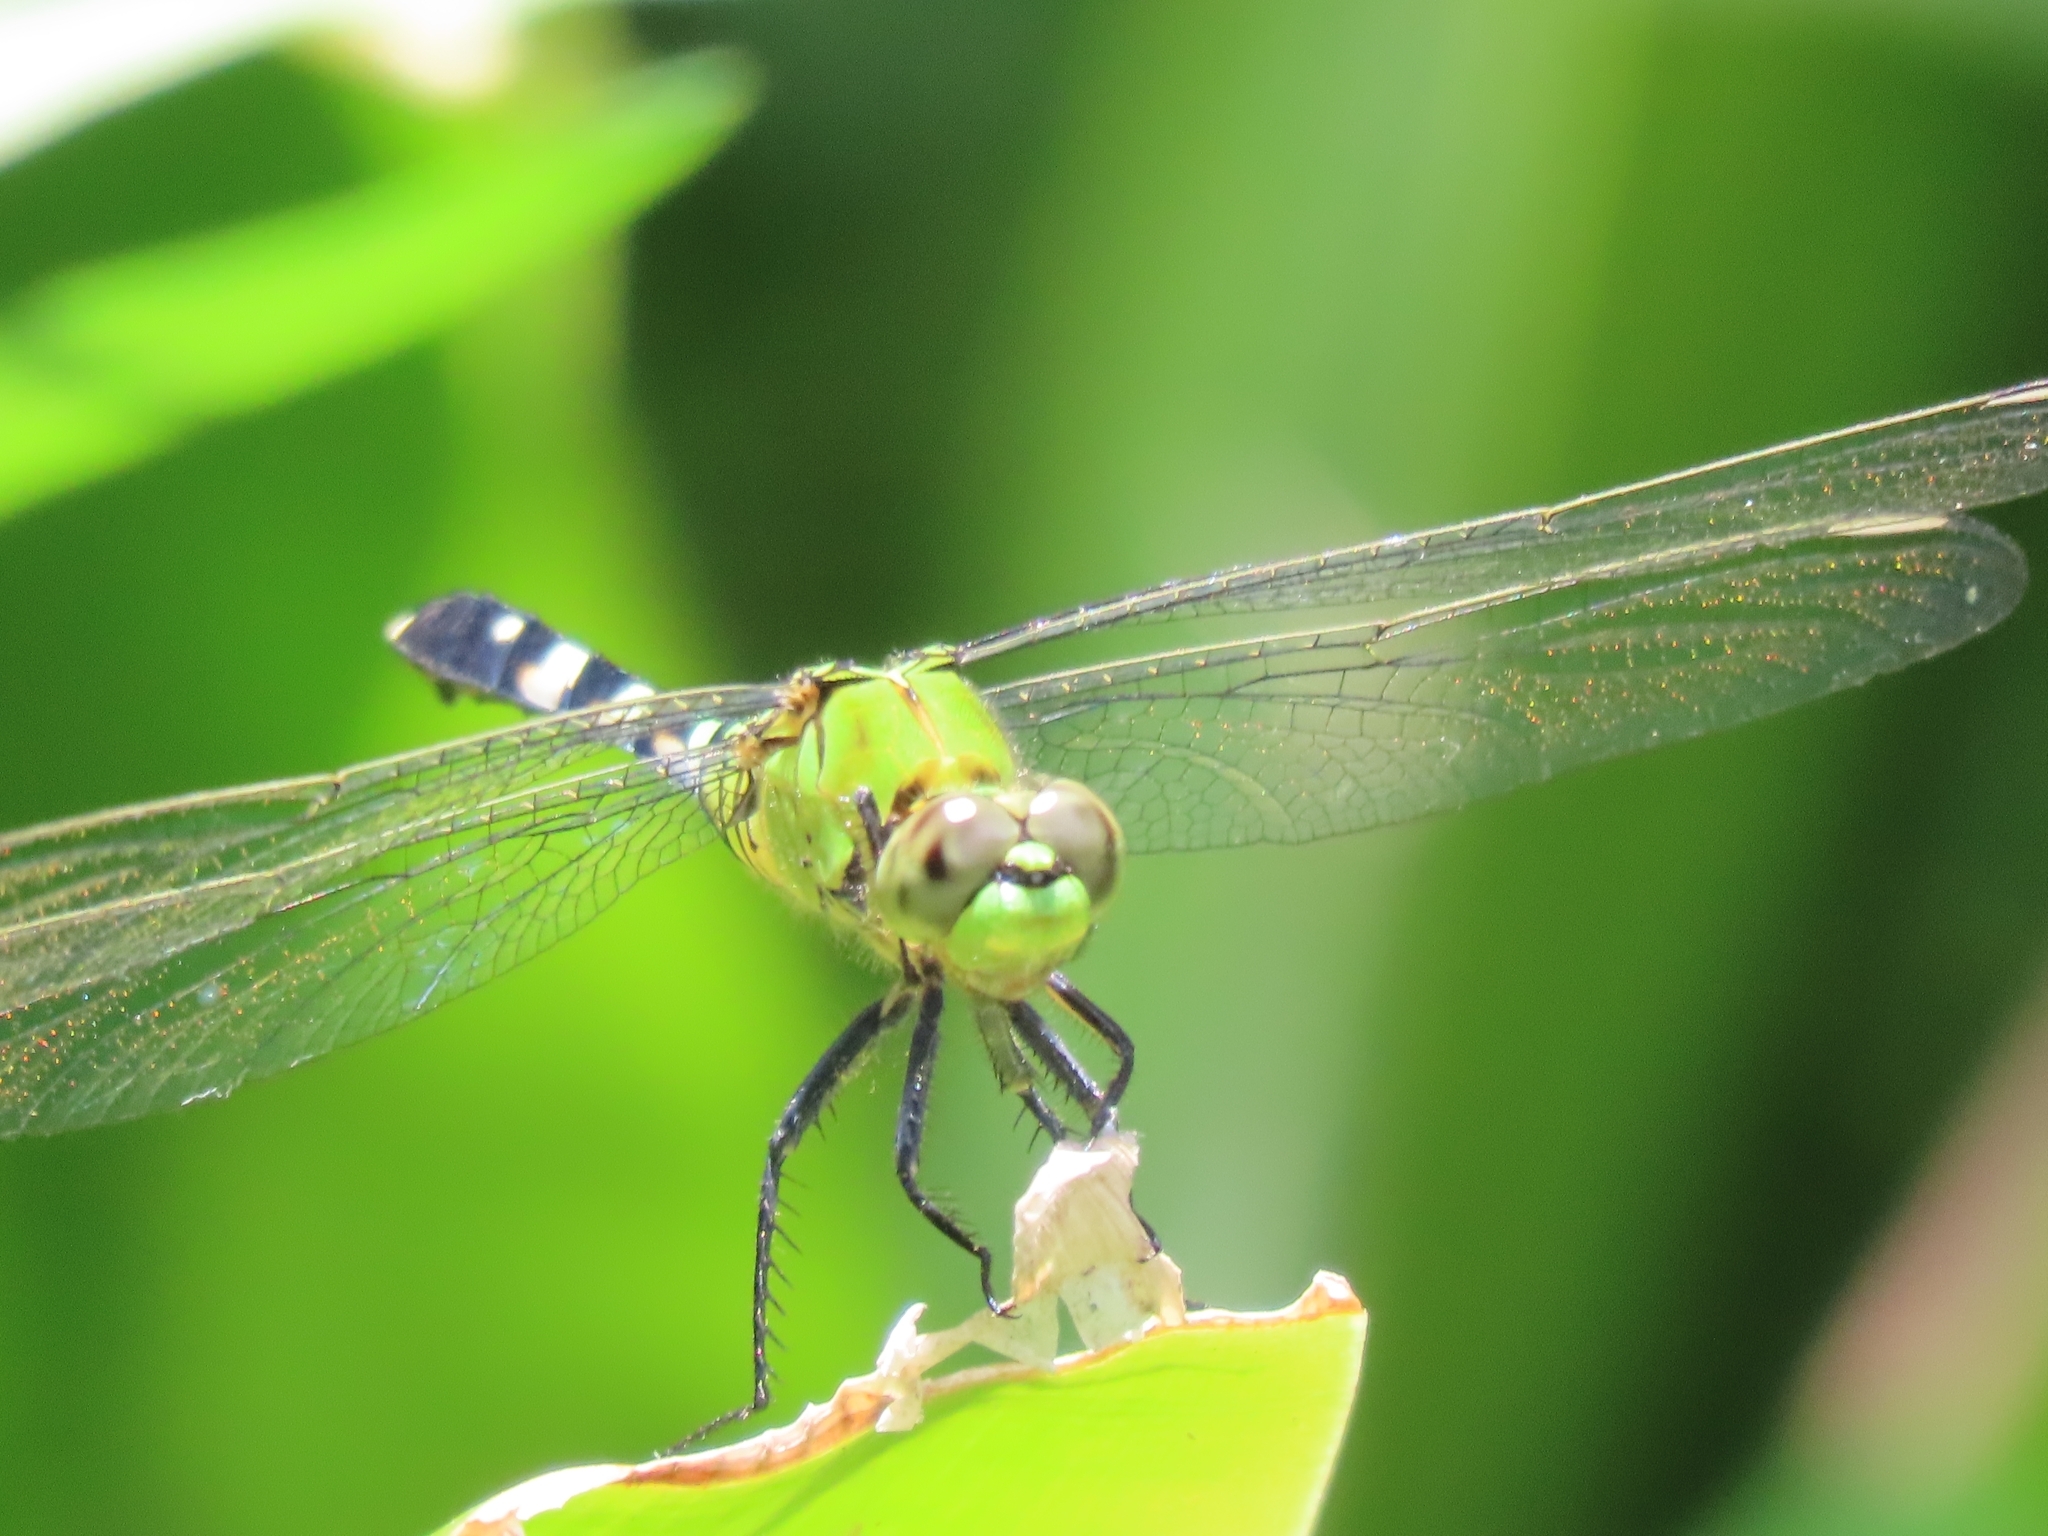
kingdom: Animalia
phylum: Arthropoda
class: Insecta
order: Odonata
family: Libellulidae
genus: Erythemis
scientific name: Erythemis simplicicollis
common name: Eastern pondhawk
